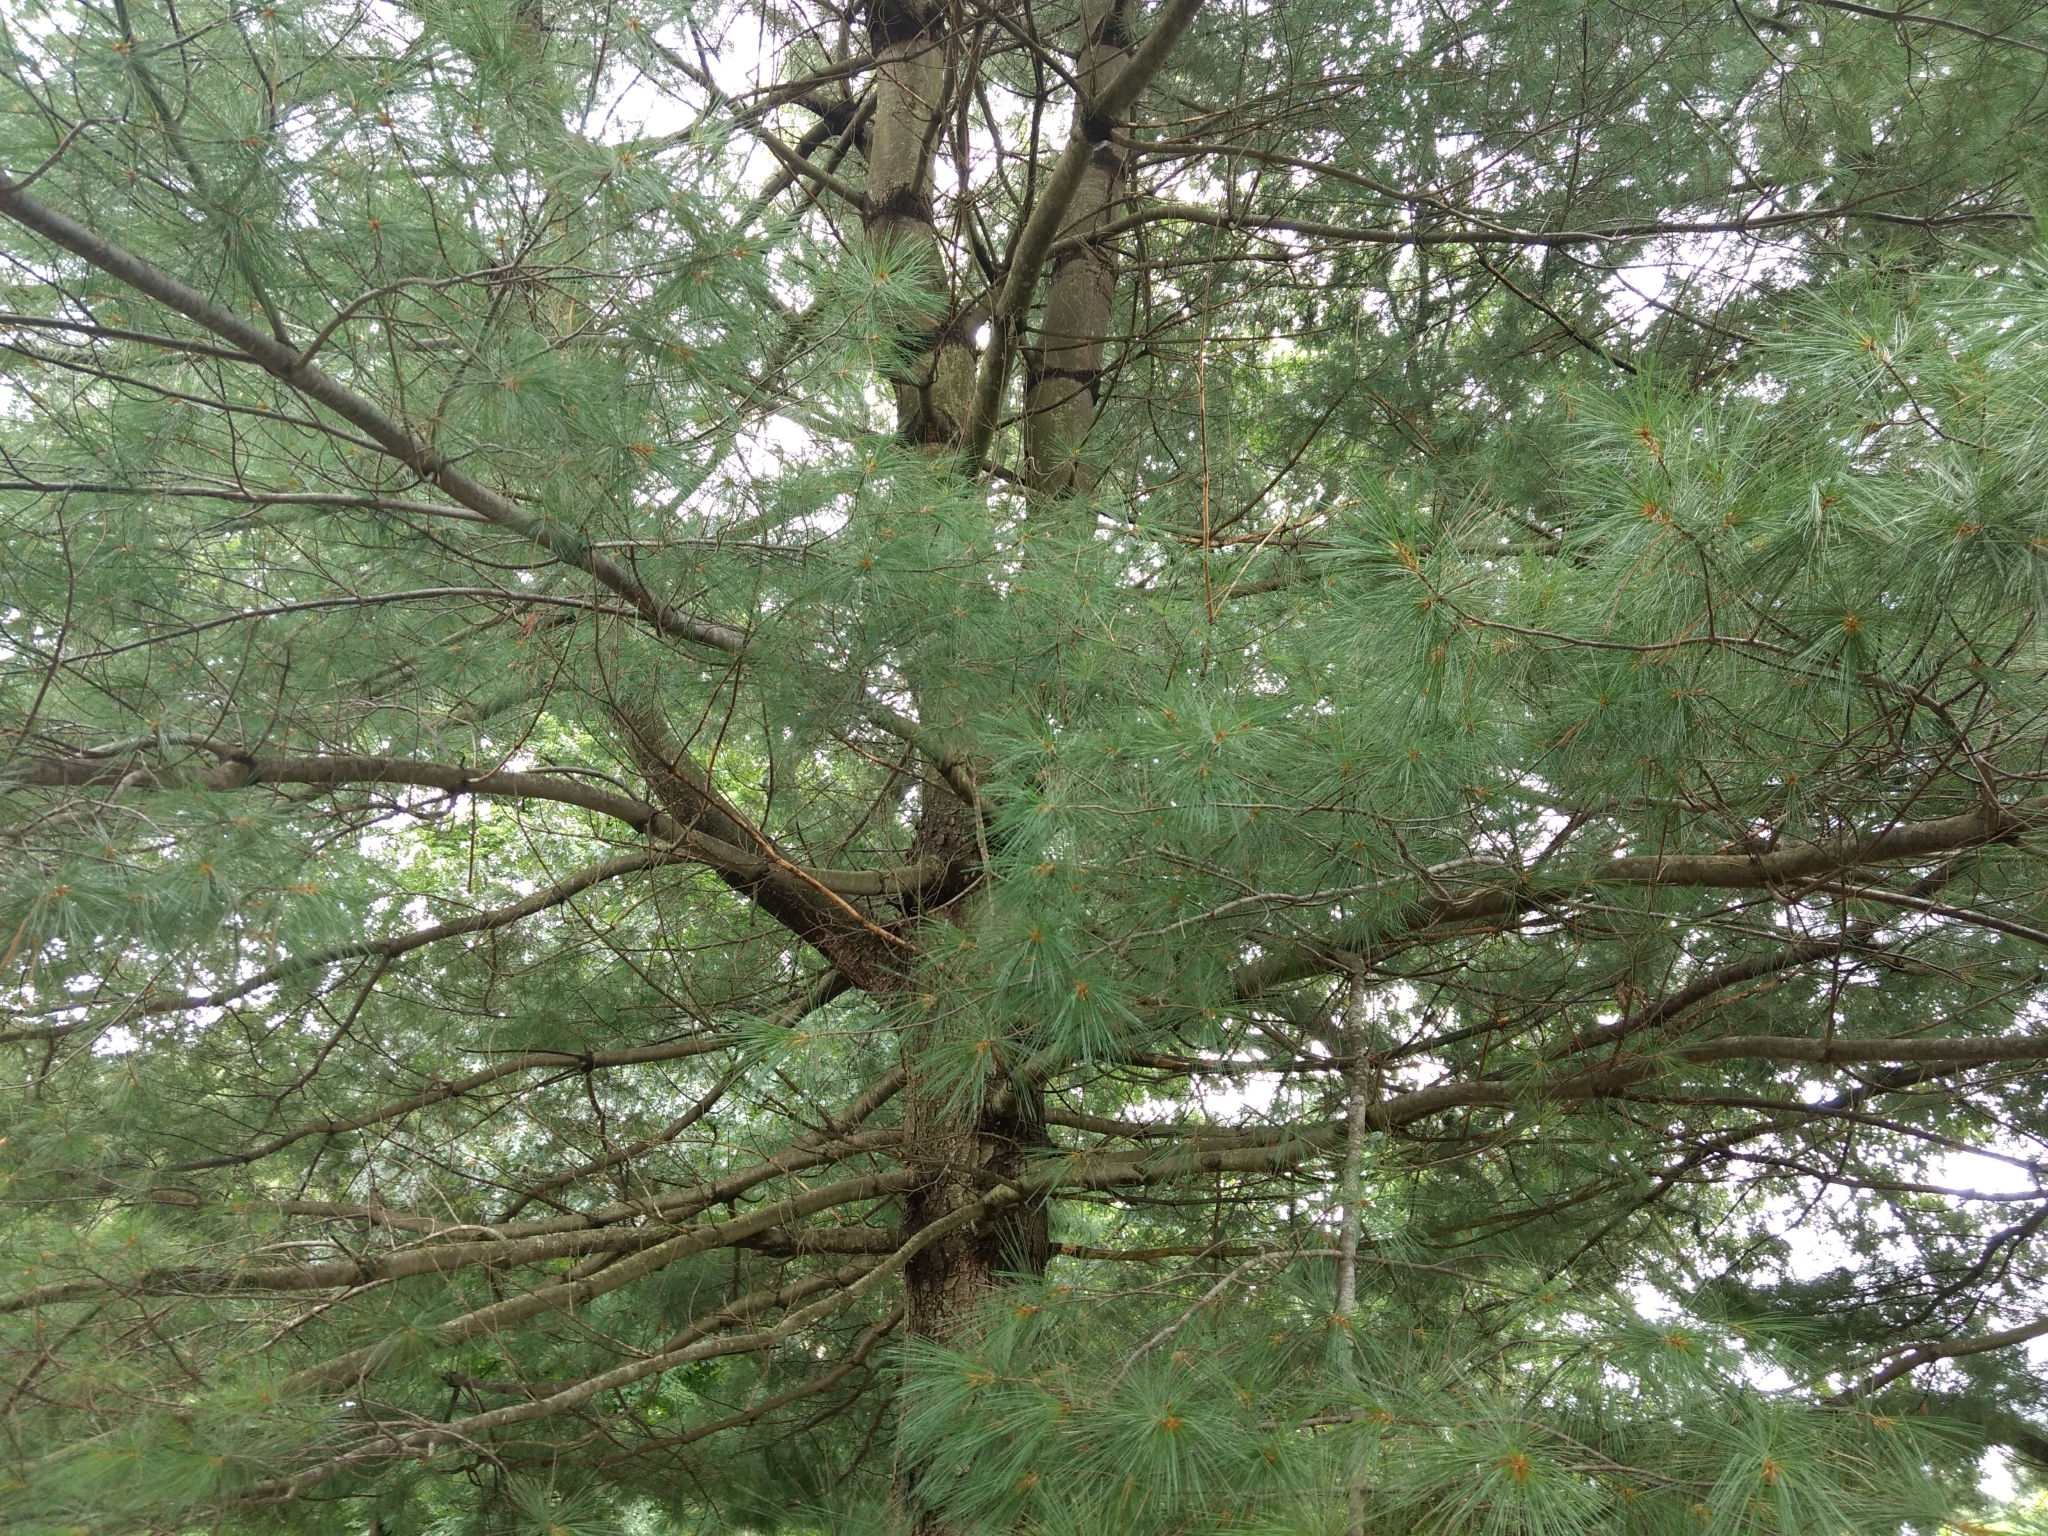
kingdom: Plantae
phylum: Tracheophyta
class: Pinopsida
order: Pinales
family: Pinaceae
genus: Pinus
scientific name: Pinus strobus
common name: Weymouth pine
